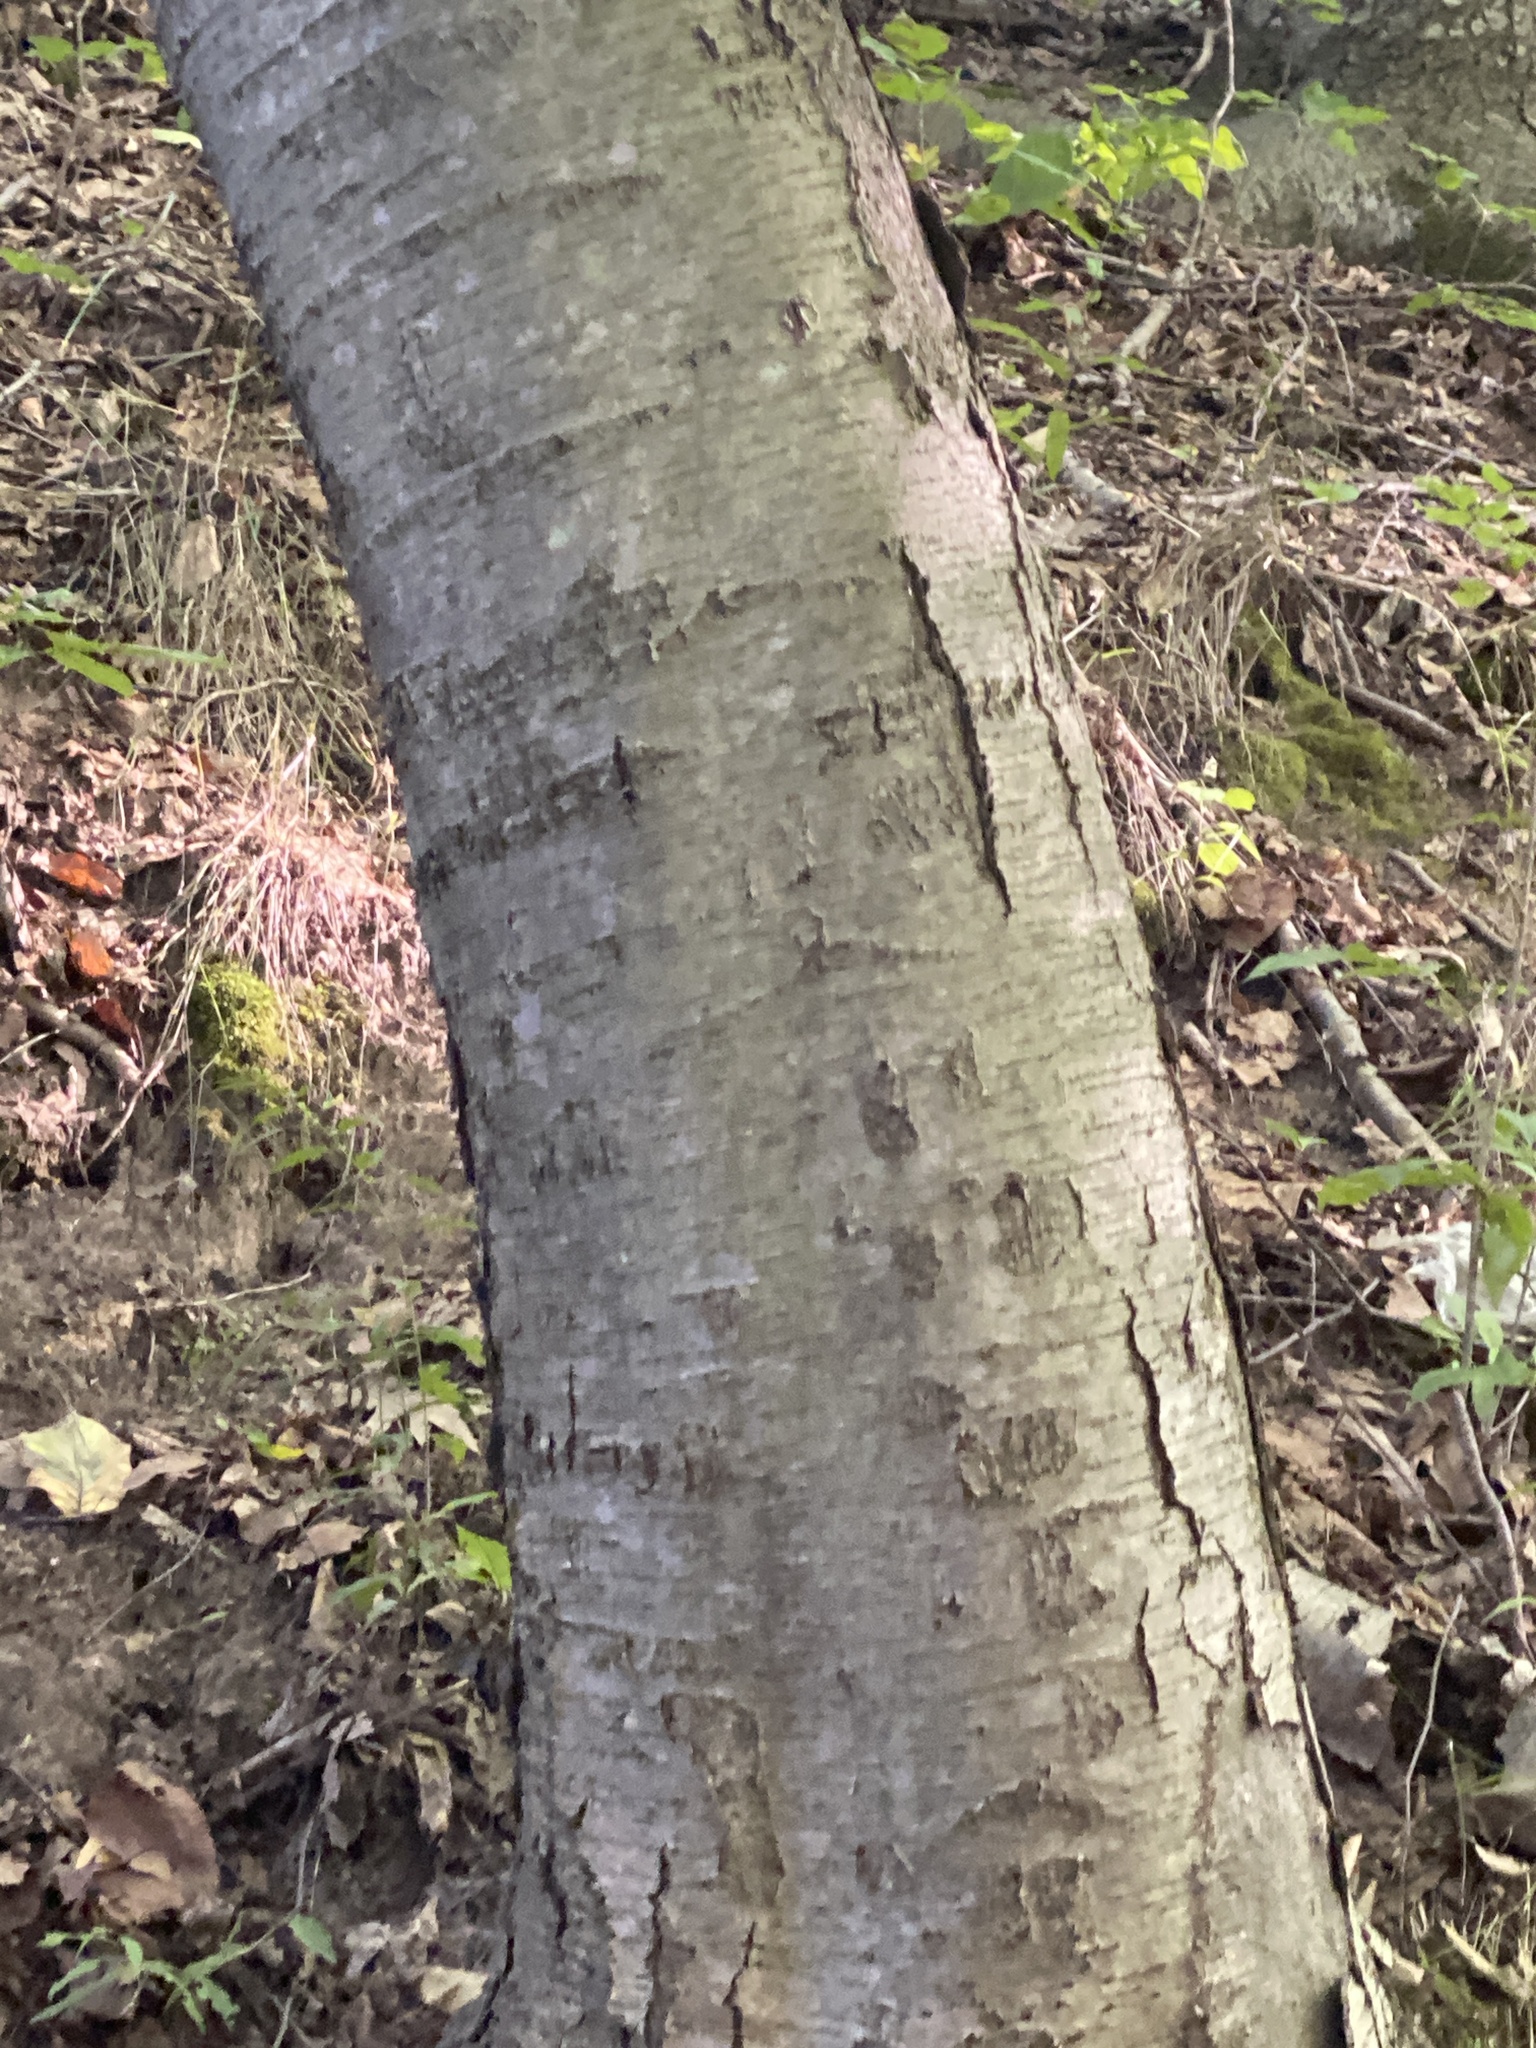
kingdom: Plantae
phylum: Tracheophyta
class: Magnoliopsida
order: Fagales
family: Betulaceae
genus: Betula
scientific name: Betula lenta
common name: Black birch
